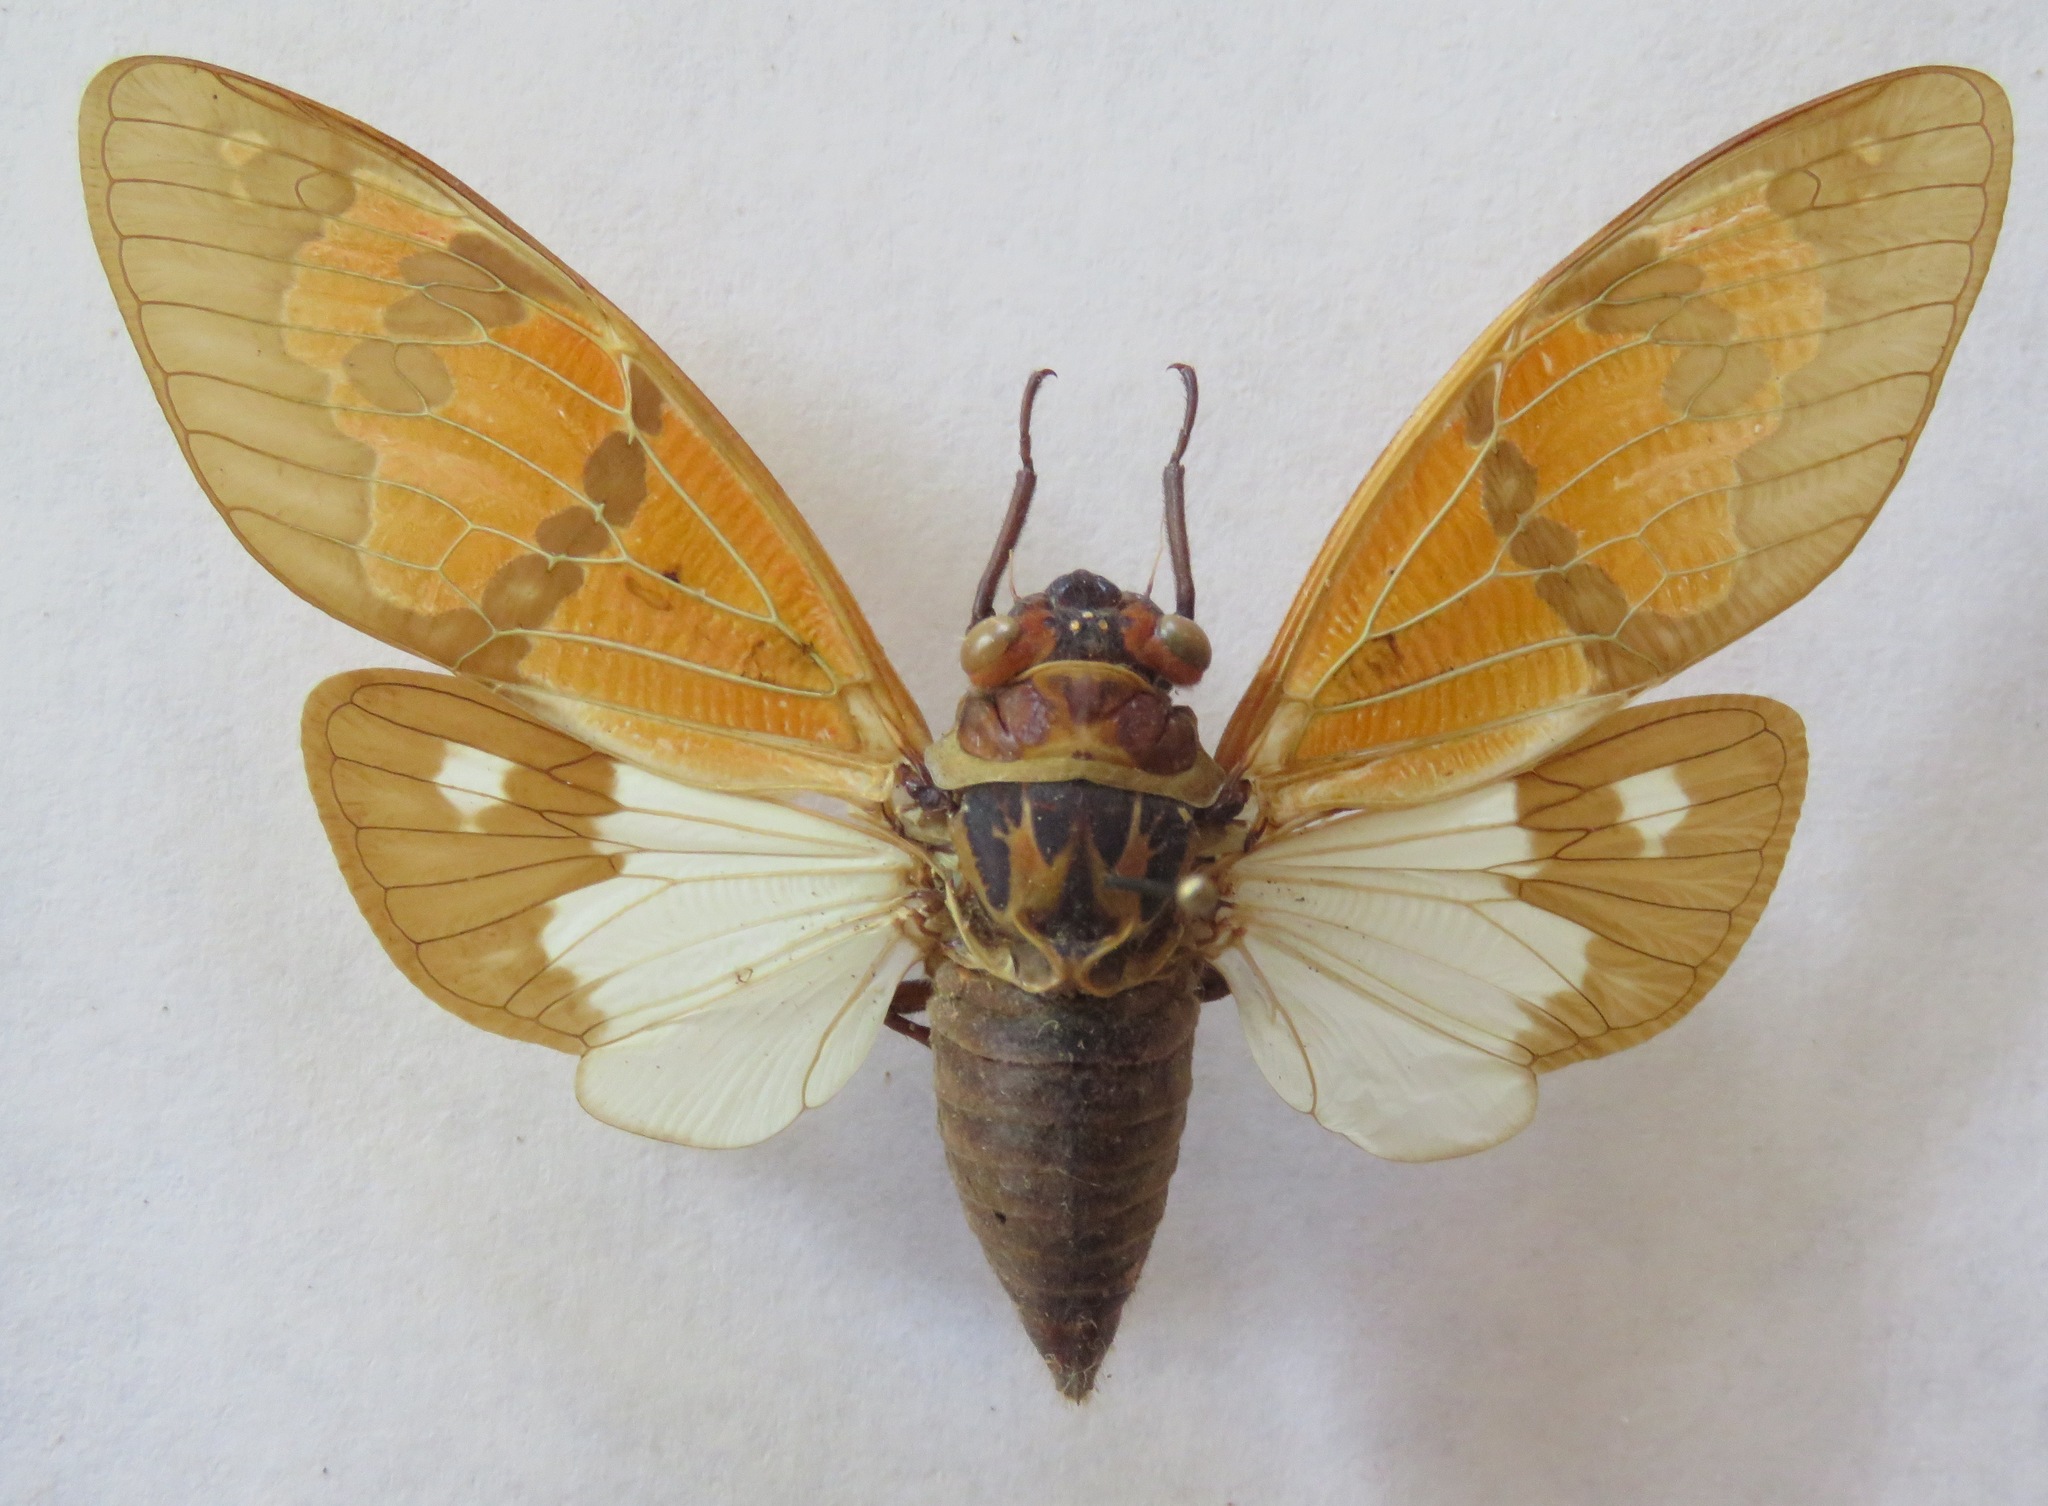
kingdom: Animalia
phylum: Arthropoda
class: Insecta
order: Hemiptera
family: Cicadidae
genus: Callogaeana
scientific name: Callogaeana festiva
